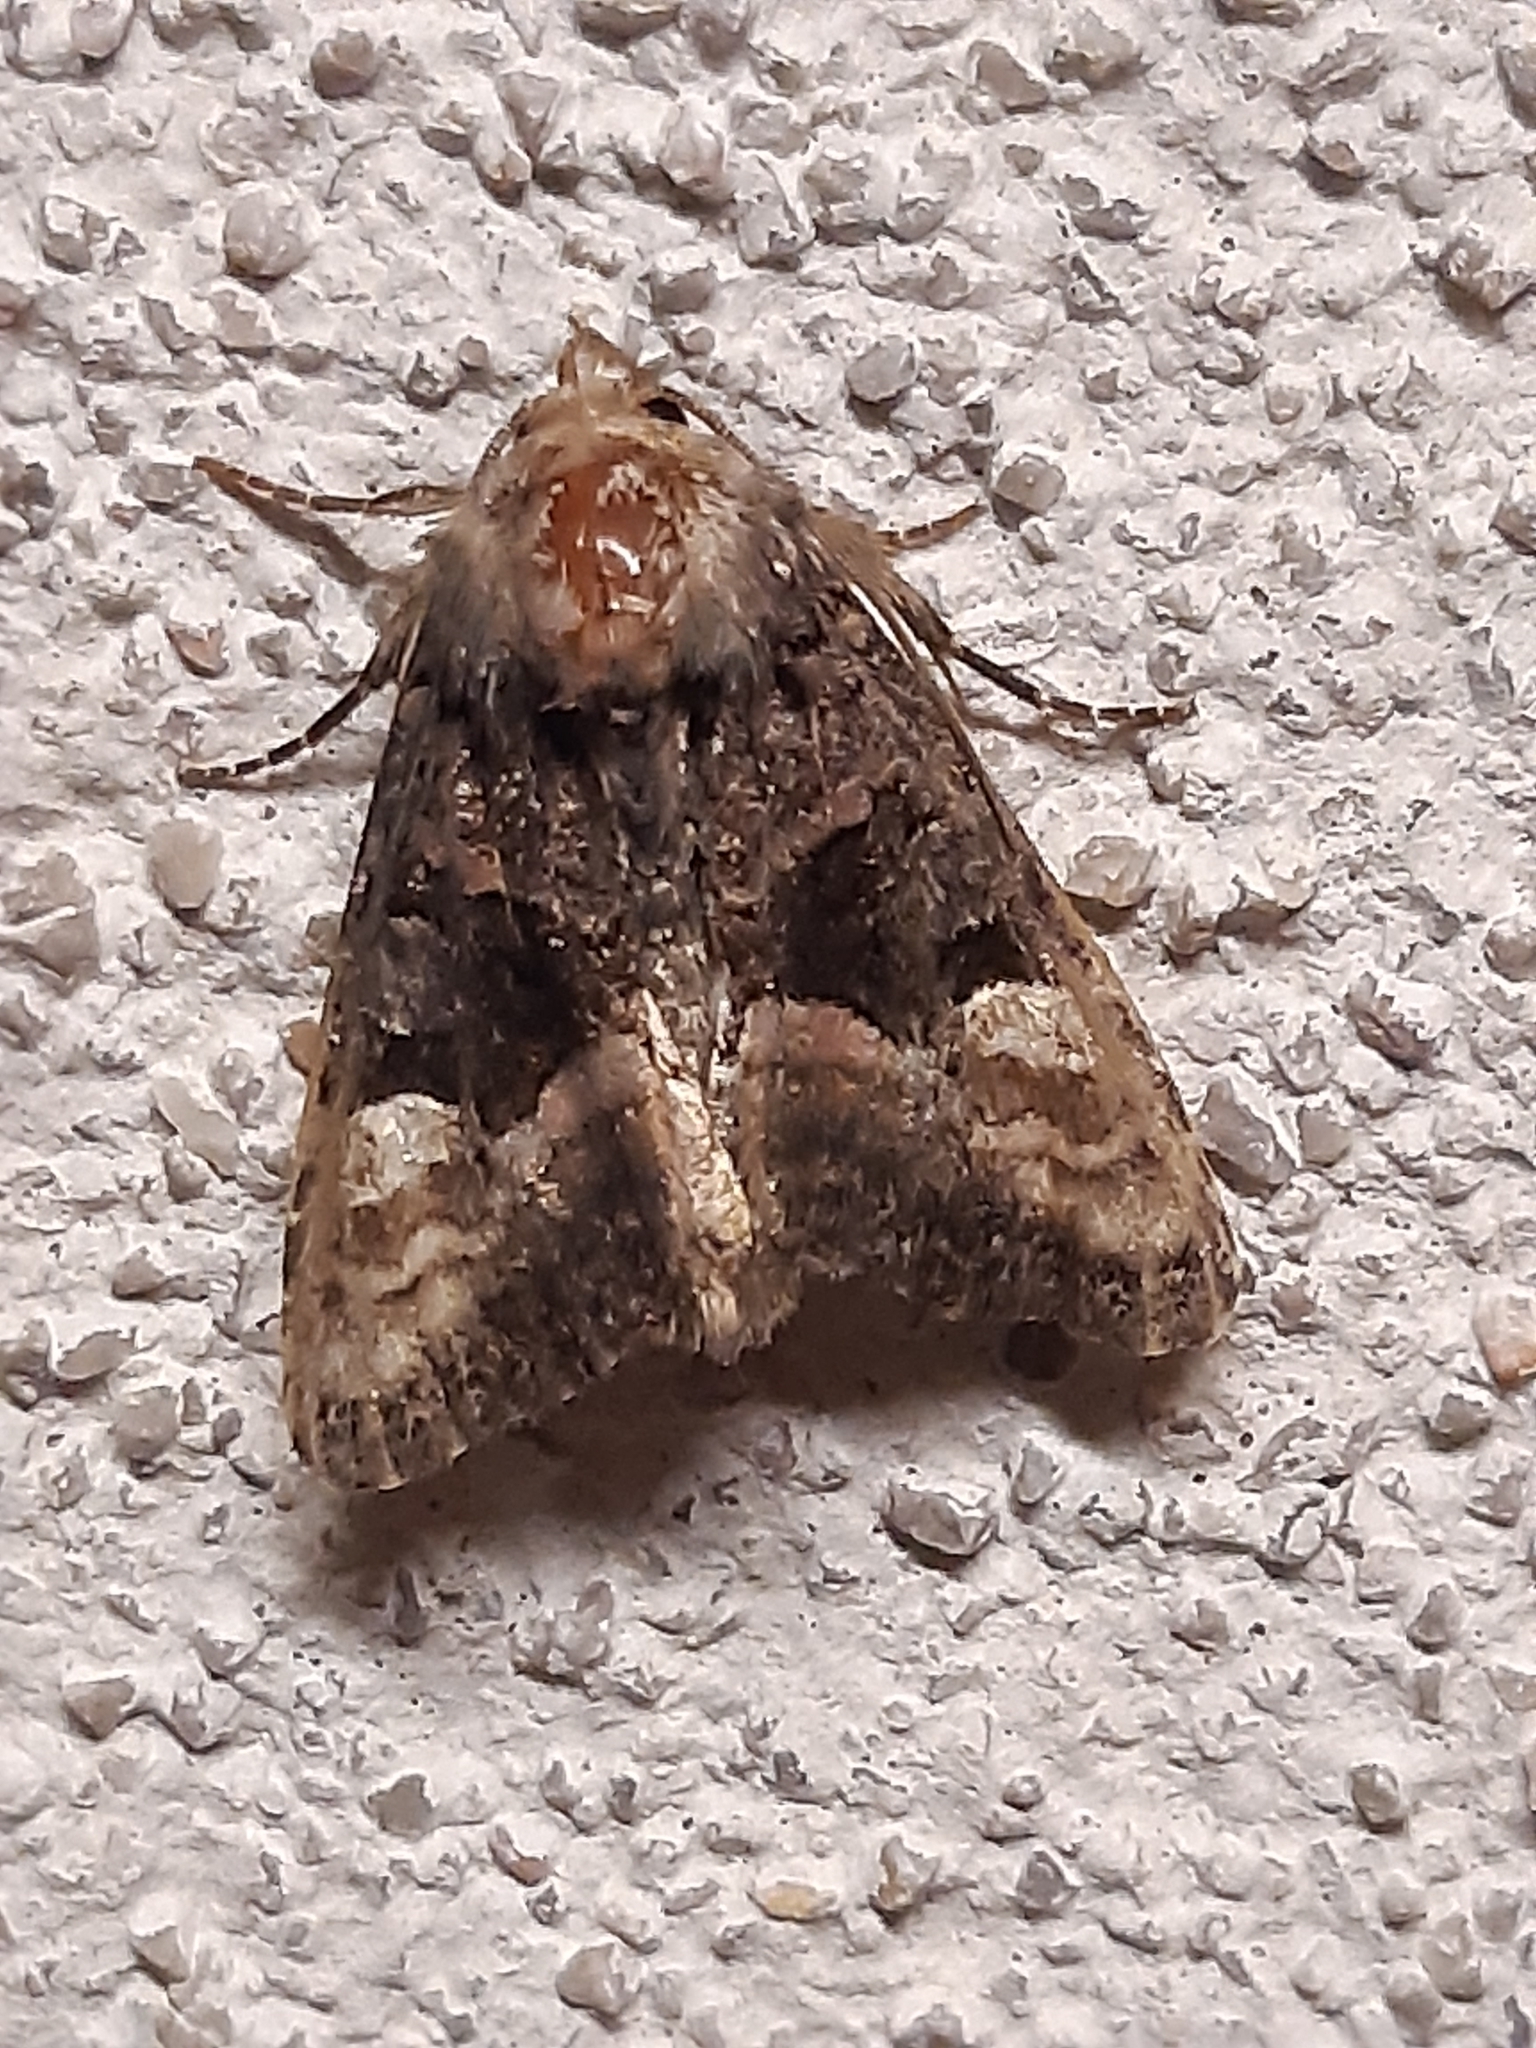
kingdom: Animalia
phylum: Arthropoda
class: Insecta
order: Lepidoptera
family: Noctuidae
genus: Euplexia
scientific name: Euplexia lucipara
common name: Small angle shades
